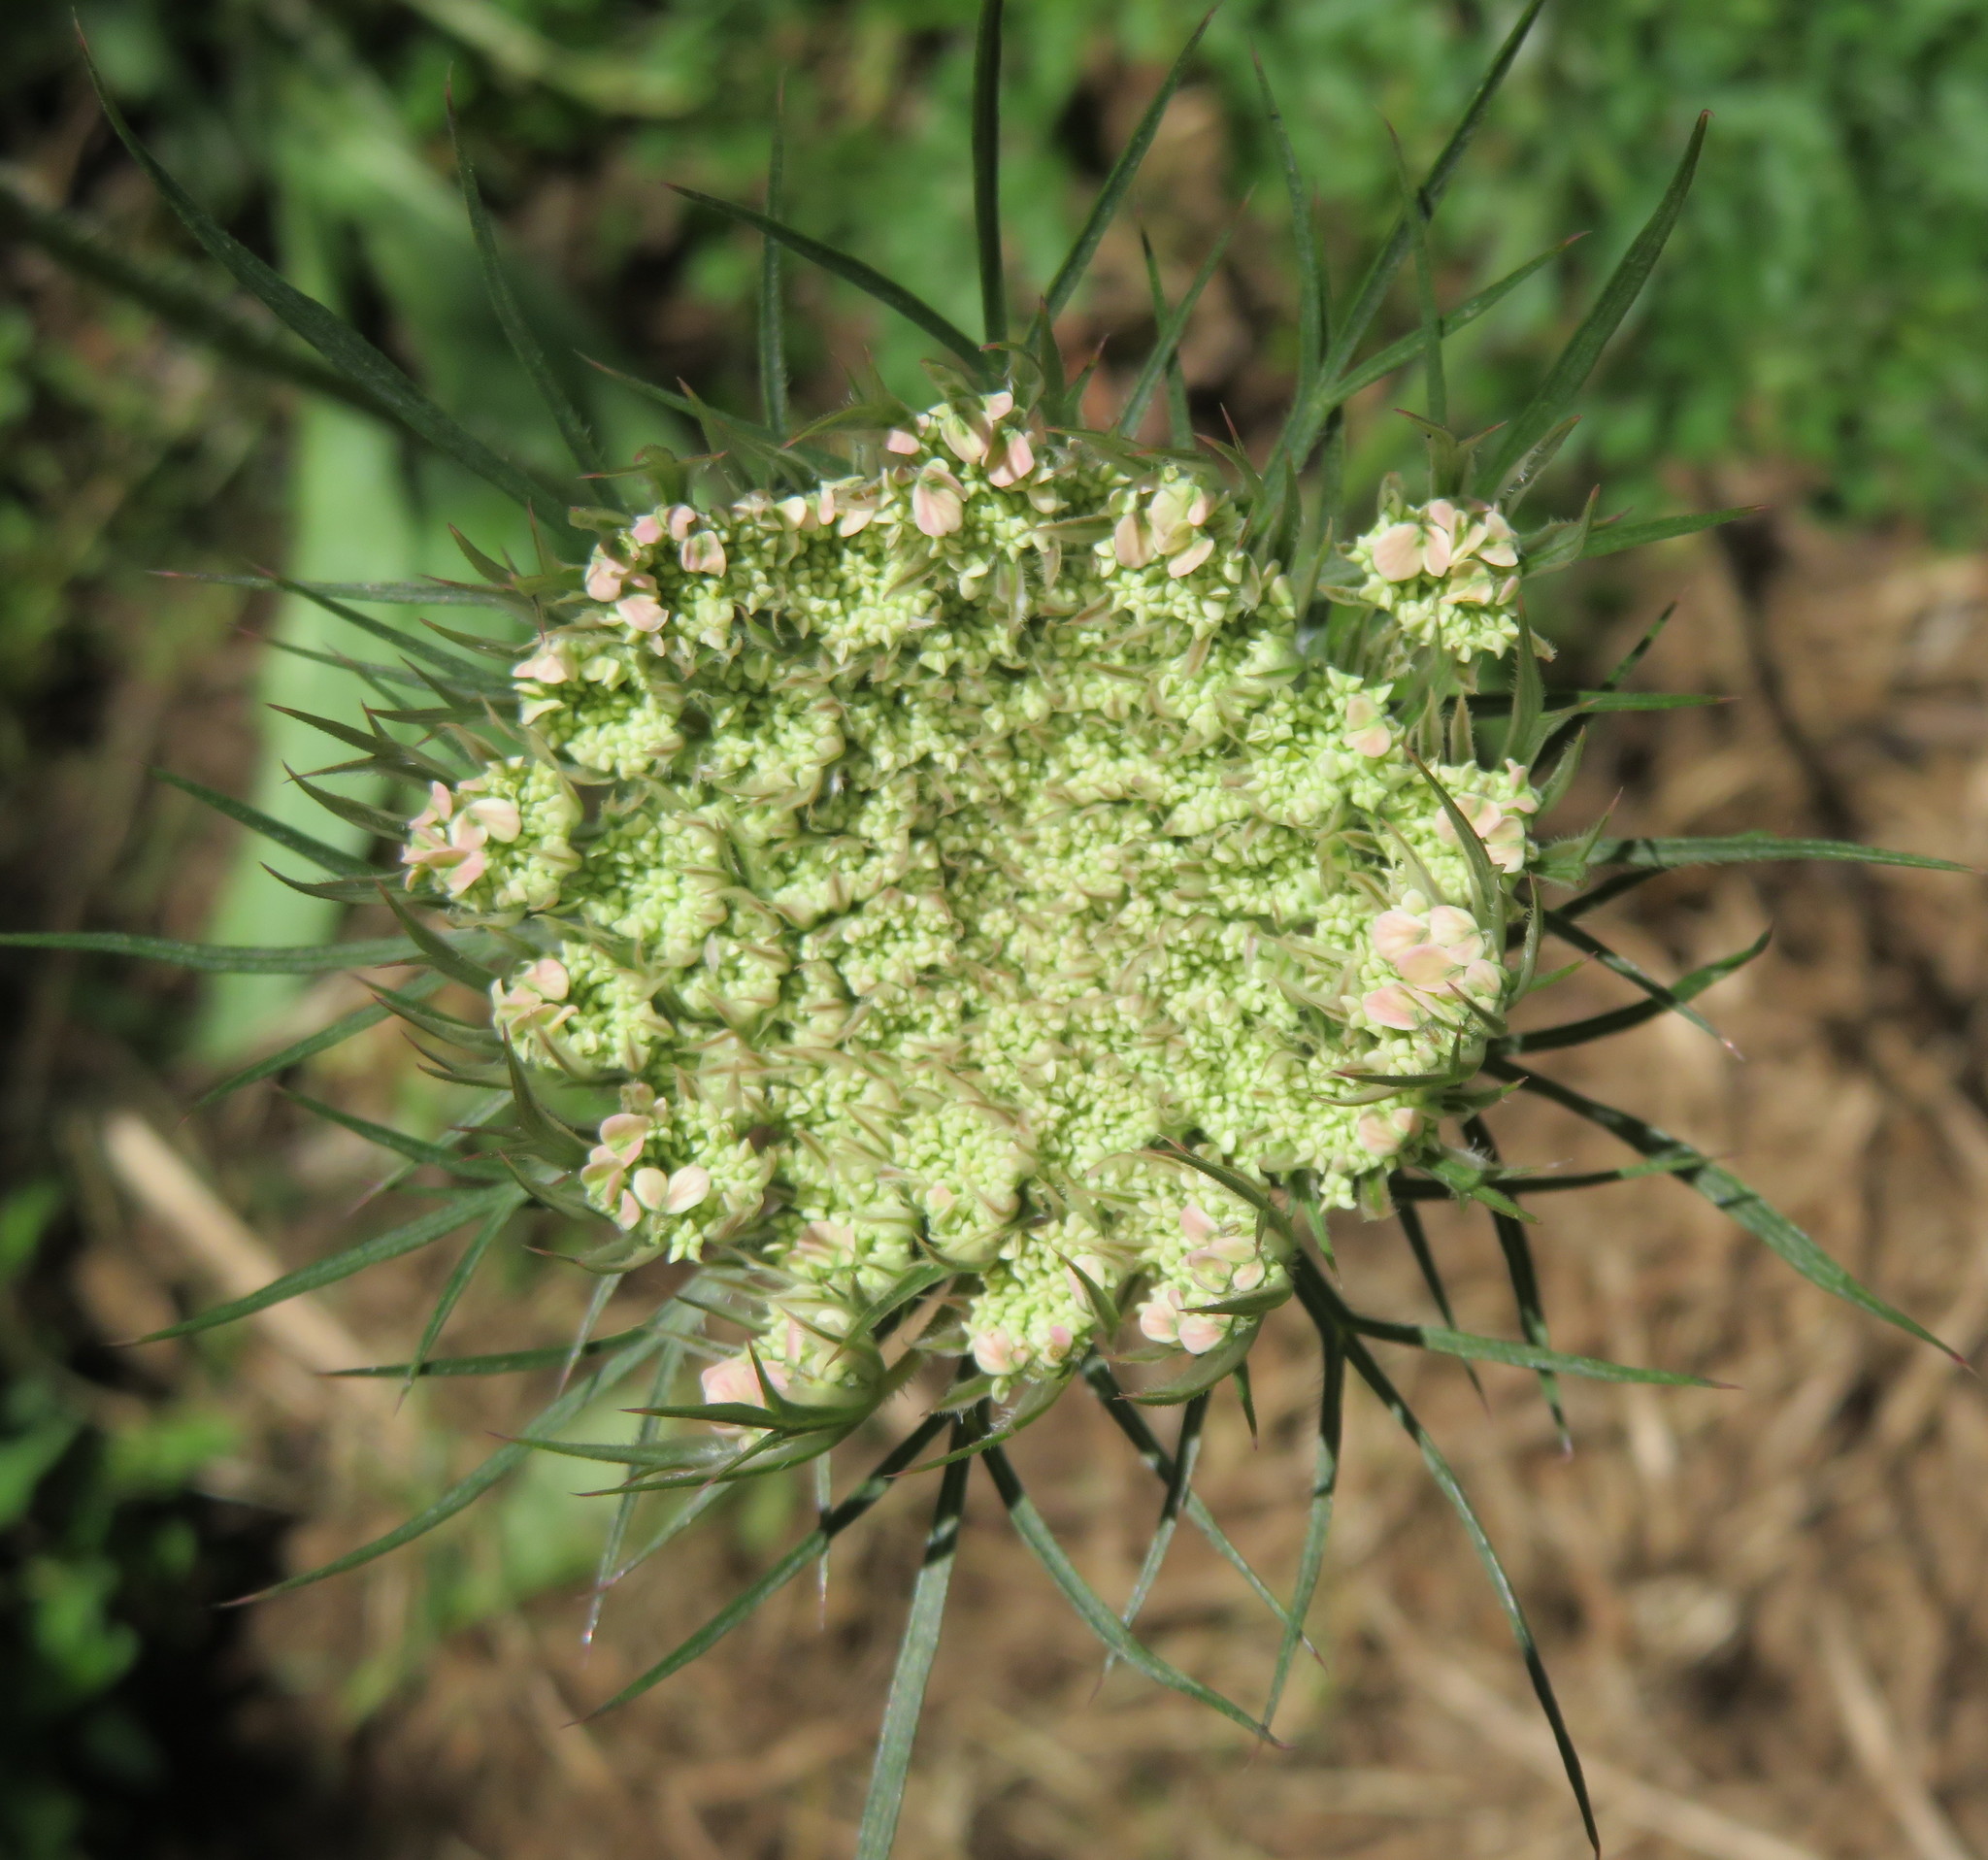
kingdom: Plantae
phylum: Tracheophyta
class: Magnoliopsida
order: Apiales
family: Apiaceae
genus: Daucus
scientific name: Daucus carota
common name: Wild carrot
